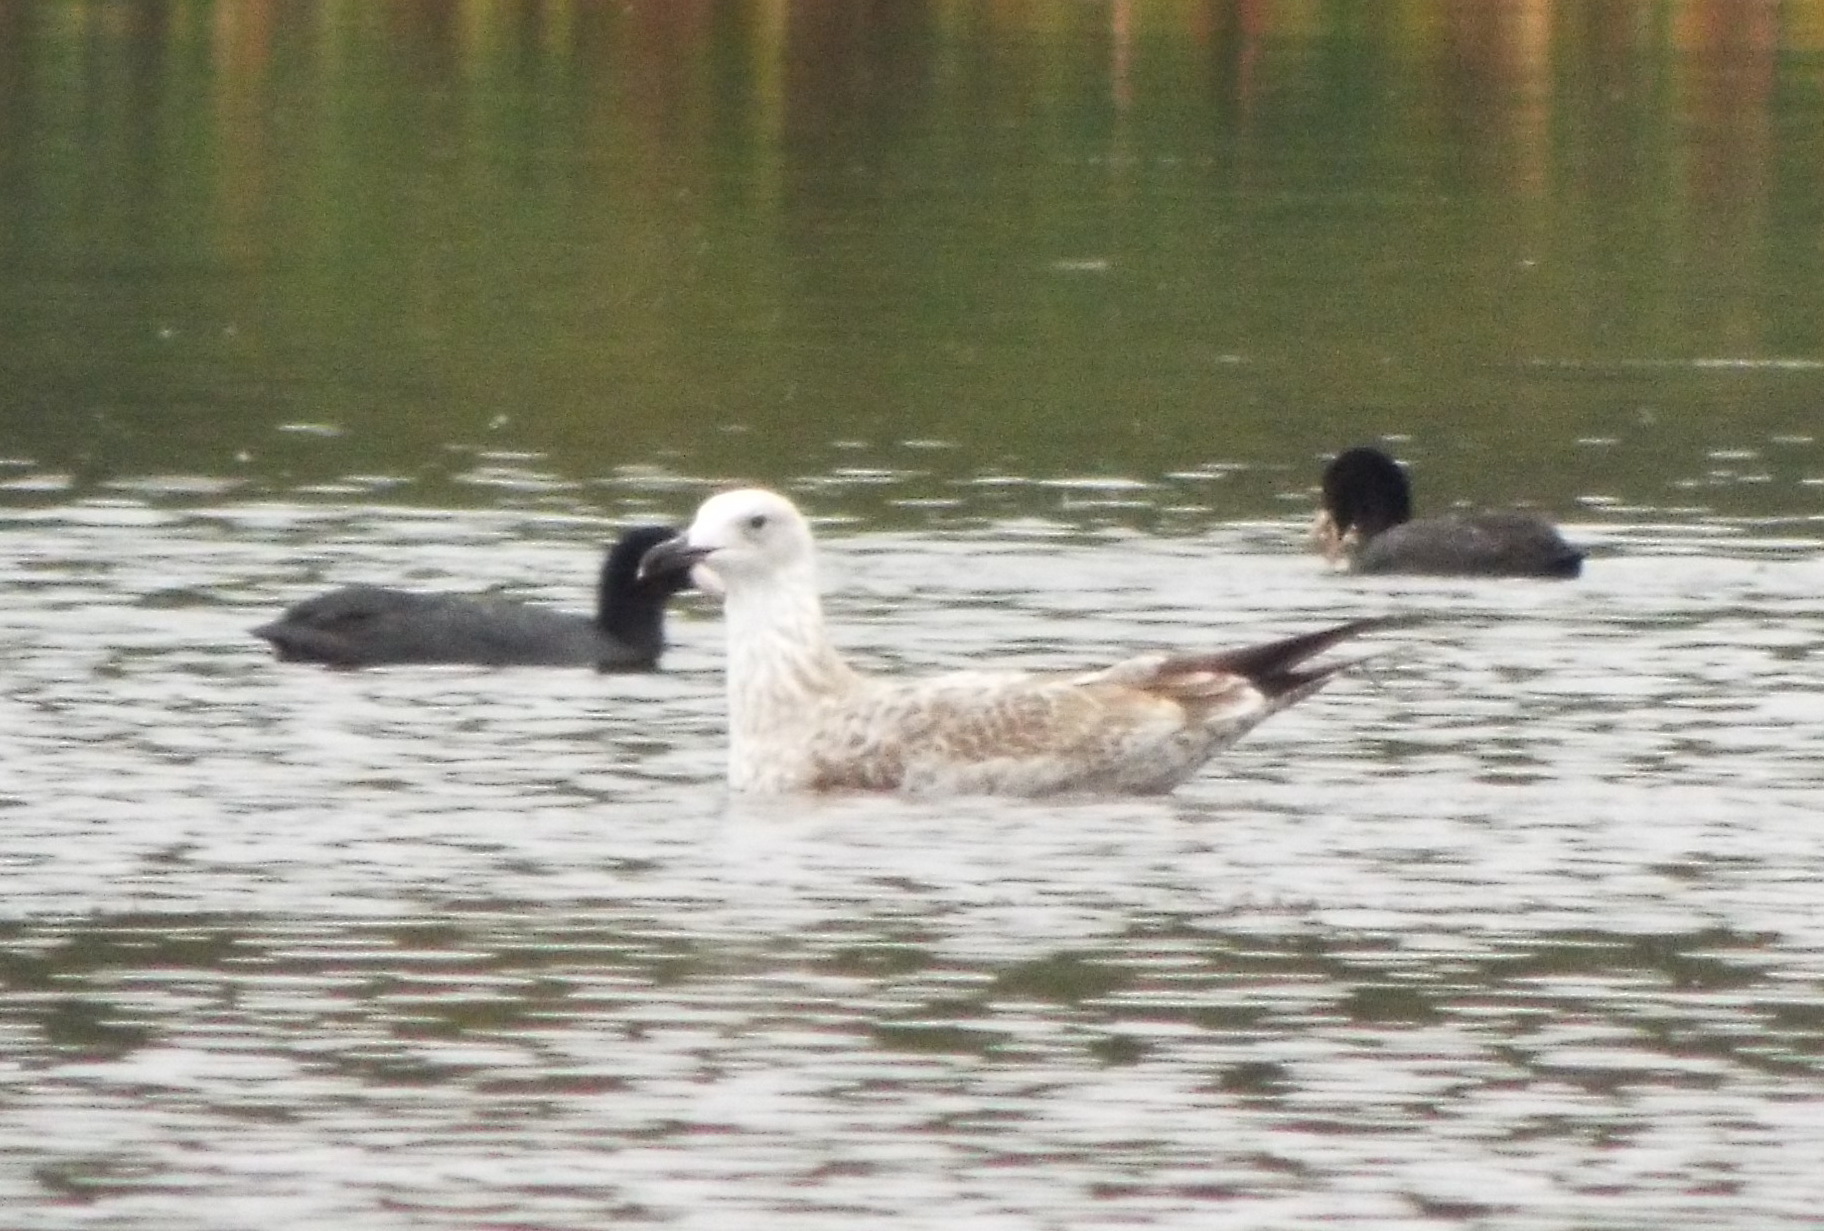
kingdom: Animalia
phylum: Chordata
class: Aves
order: Charadriiformes
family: Laridae
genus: Larus
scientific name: Larus cachinnans
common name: Caspian gull
